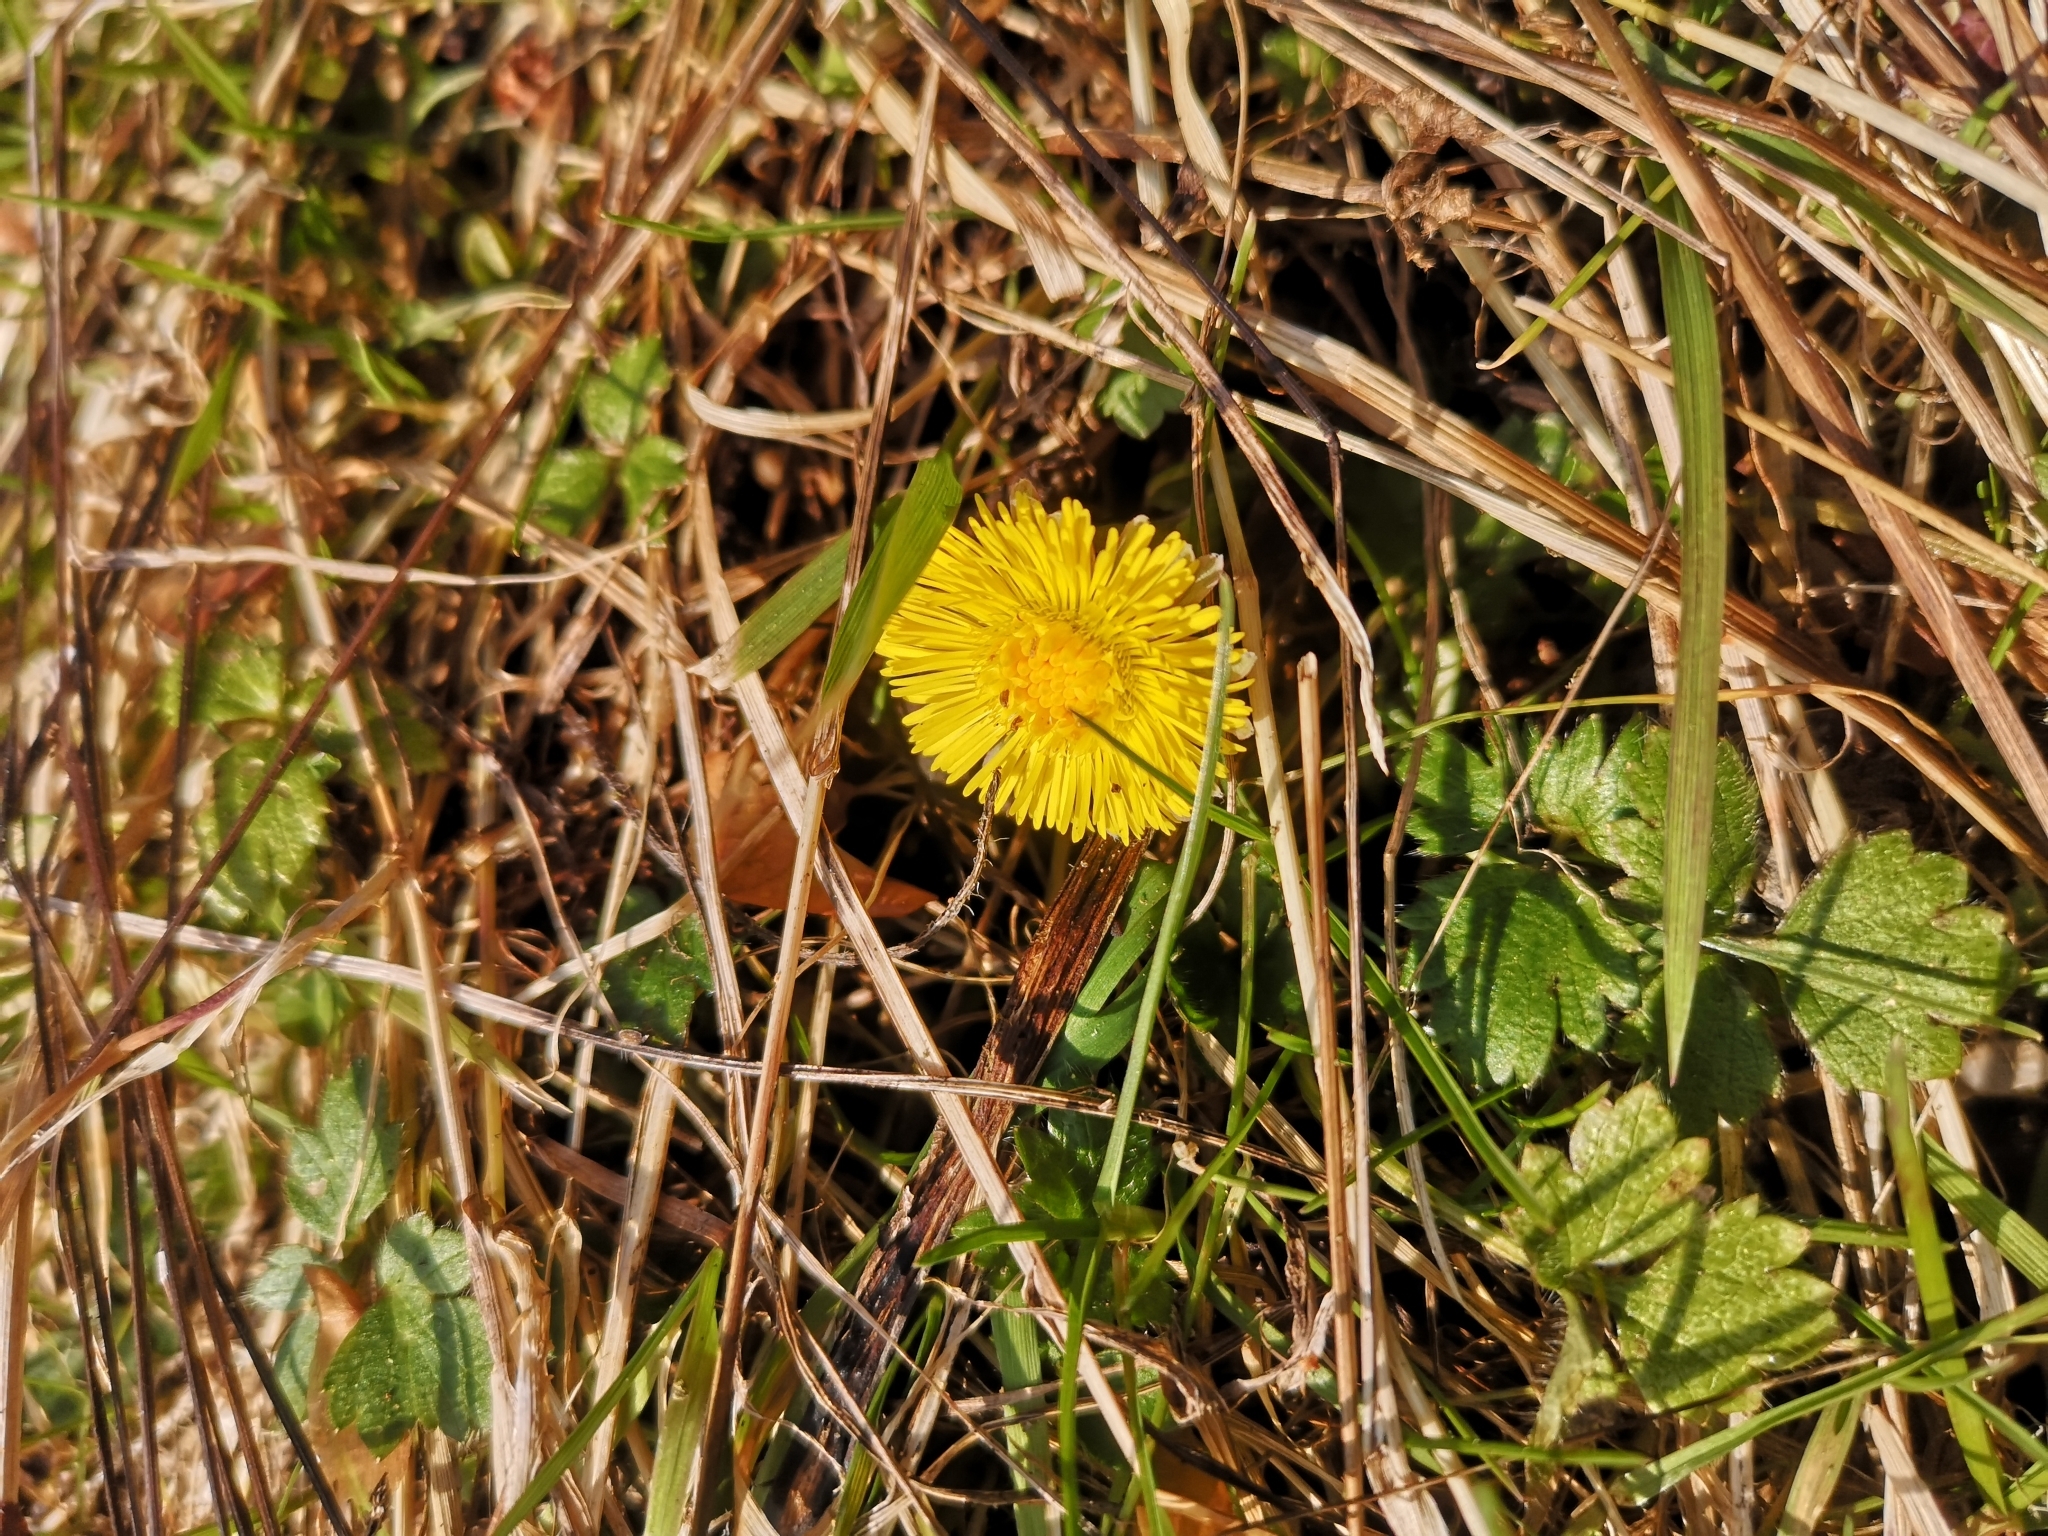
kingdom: Plantae
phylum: Tracheophyta
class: Magnoliopsida
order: Asterales
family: Asteraceae
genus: Tussilago
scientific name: Tussilago farfara
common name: Coltsfoot
